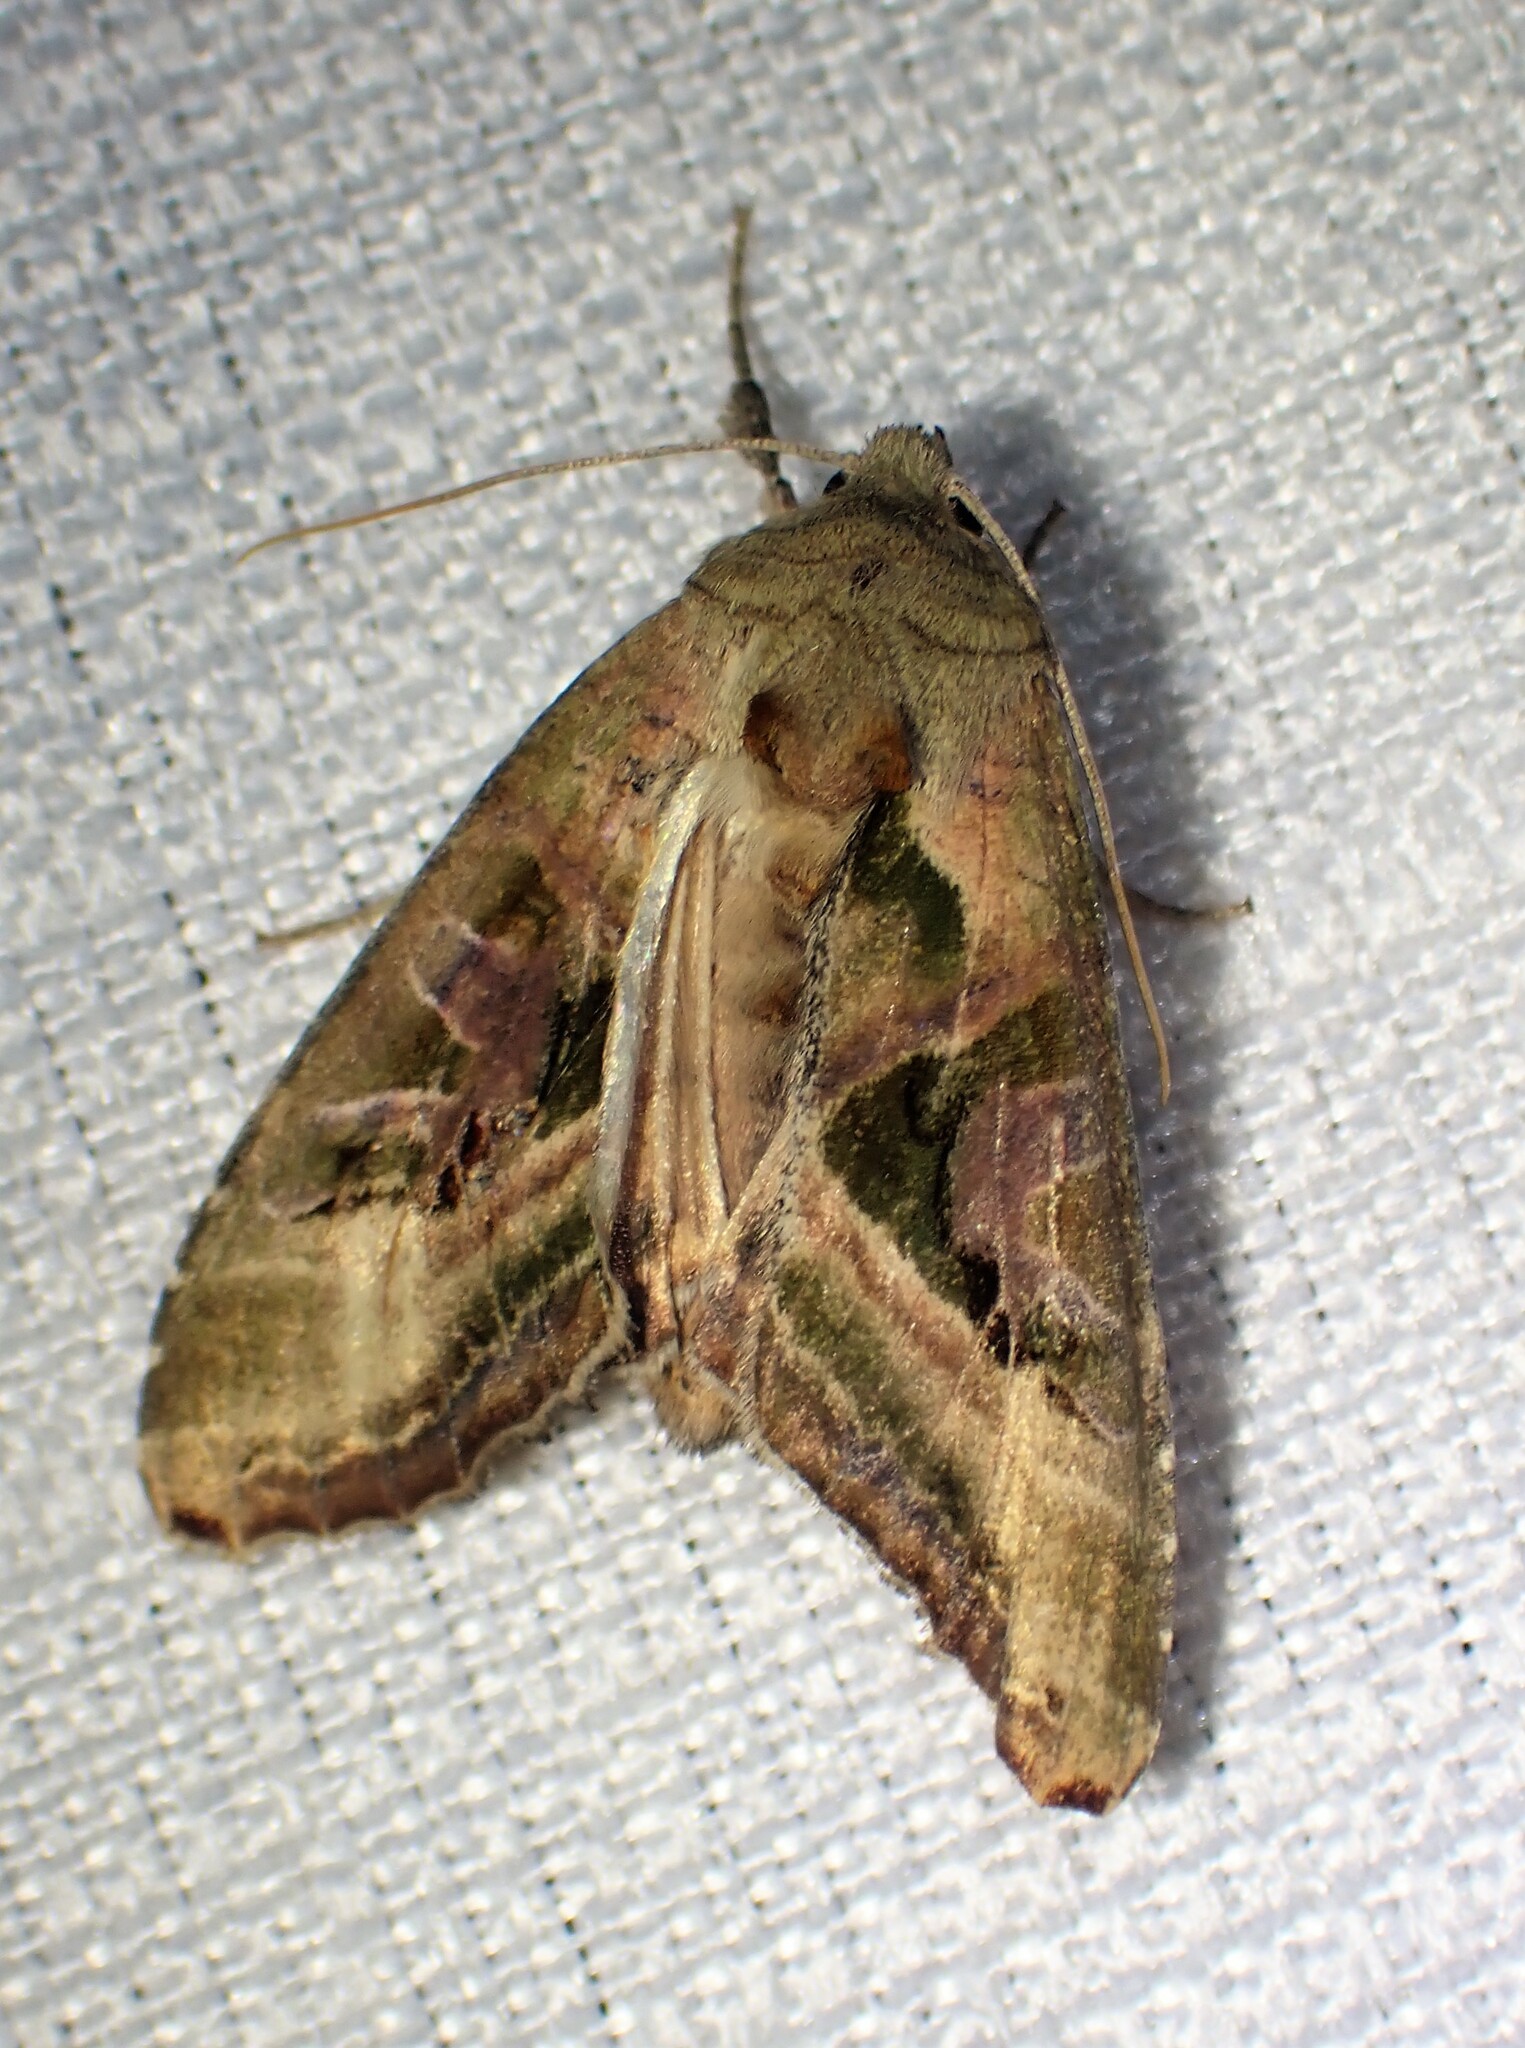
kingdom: Animalia
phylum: Arthropoda
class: Insecta
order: Lepidoptera
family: Noctuidae
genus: Phlogophora
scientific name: Phlogophora iris
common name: Olive angle shades
